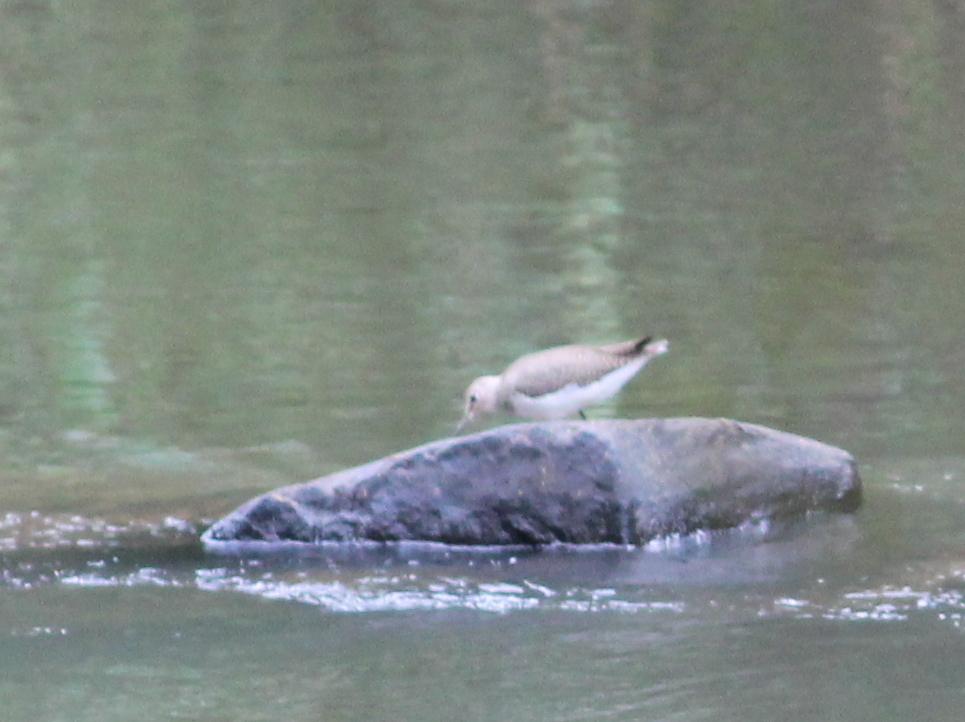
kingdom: Animalia
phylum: Chordata
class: Aves
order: Charadriiformes
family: Scolopacidae
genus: Tringa
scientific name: Tringa ochropus
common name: Green sandpiper
